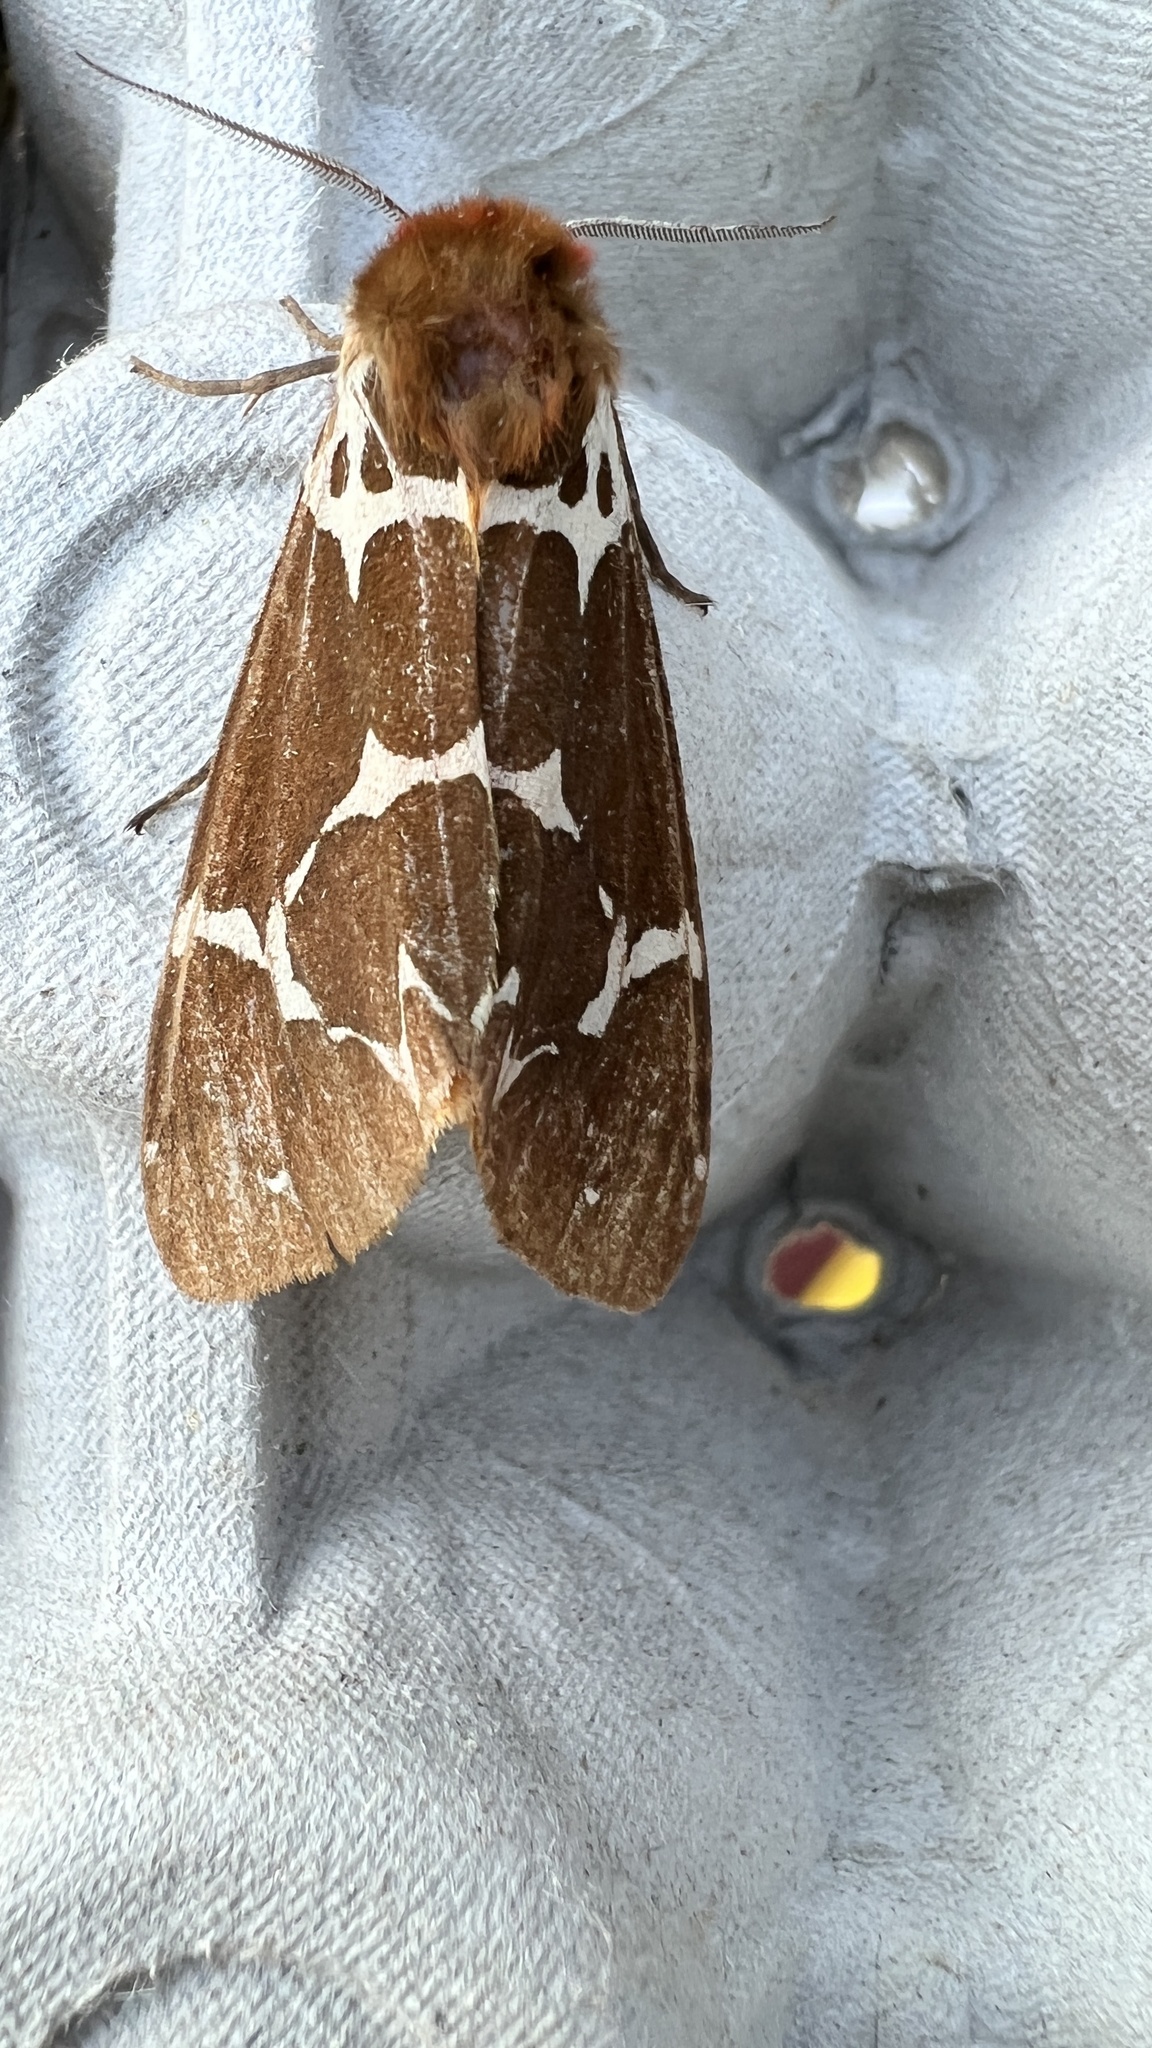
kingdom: Animalia
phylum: Arthropoda
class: Insecta
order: Lepidoptera
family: Erebidae
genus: Arctia
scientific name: Arctia caja
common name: Garden tiger
